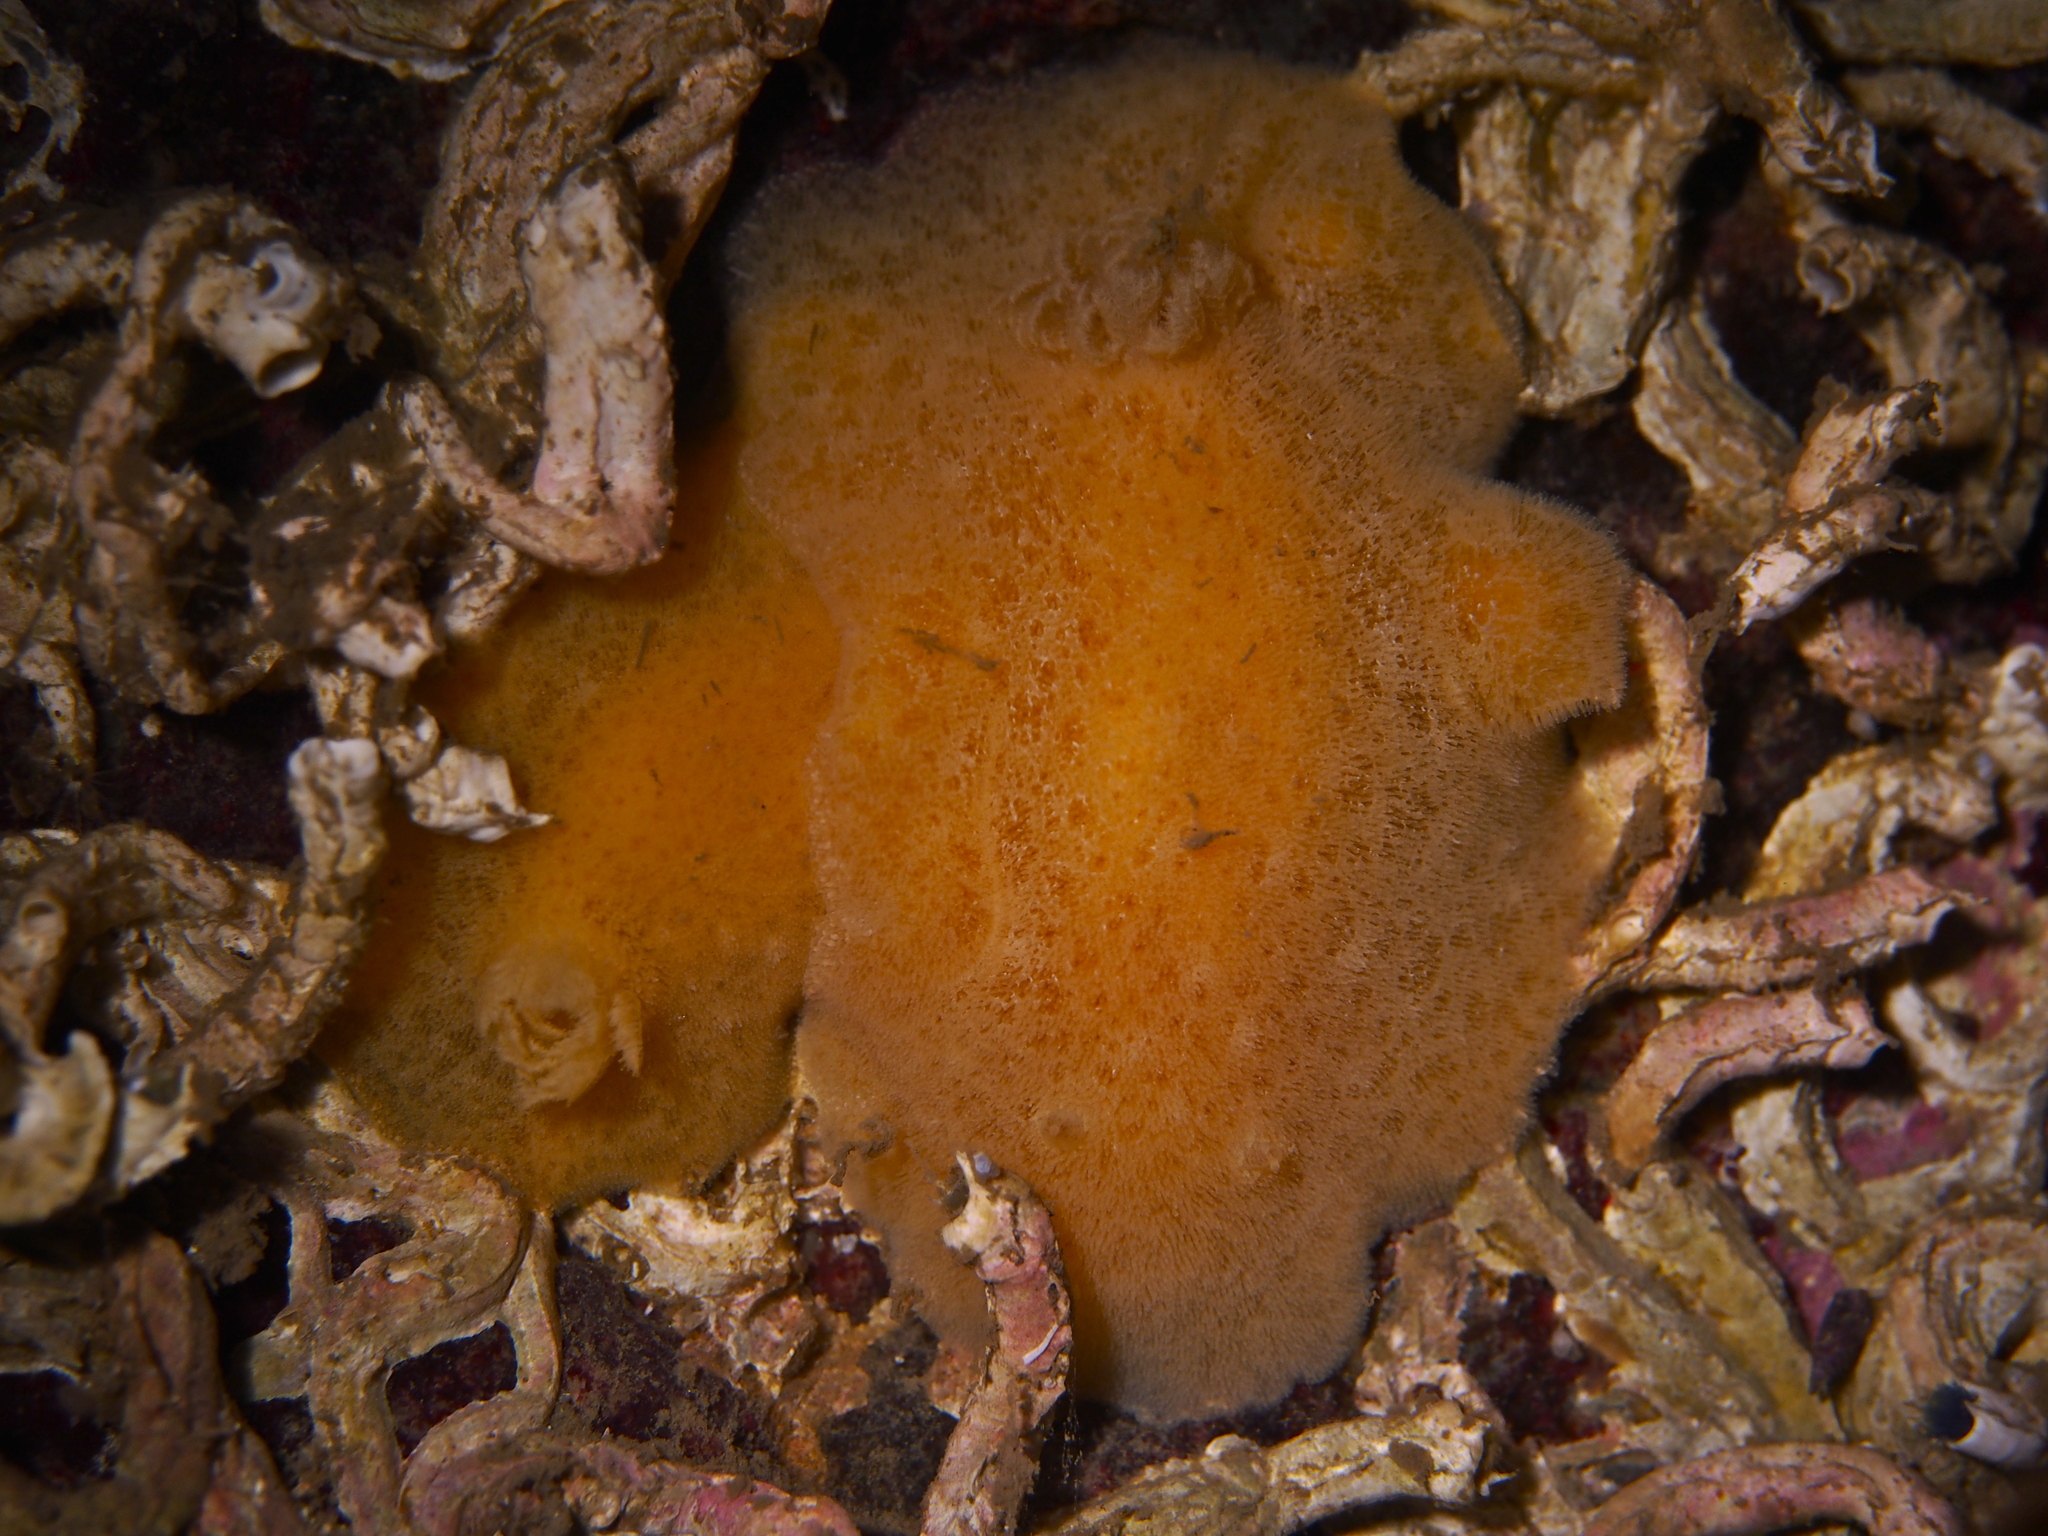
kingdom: Animalia
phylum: Mollusca
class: Gastropoda
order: Nudibranchia
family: Discodorididae
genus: Jorunna
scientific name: Jorunna tomentosa
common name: Grey sea slug
